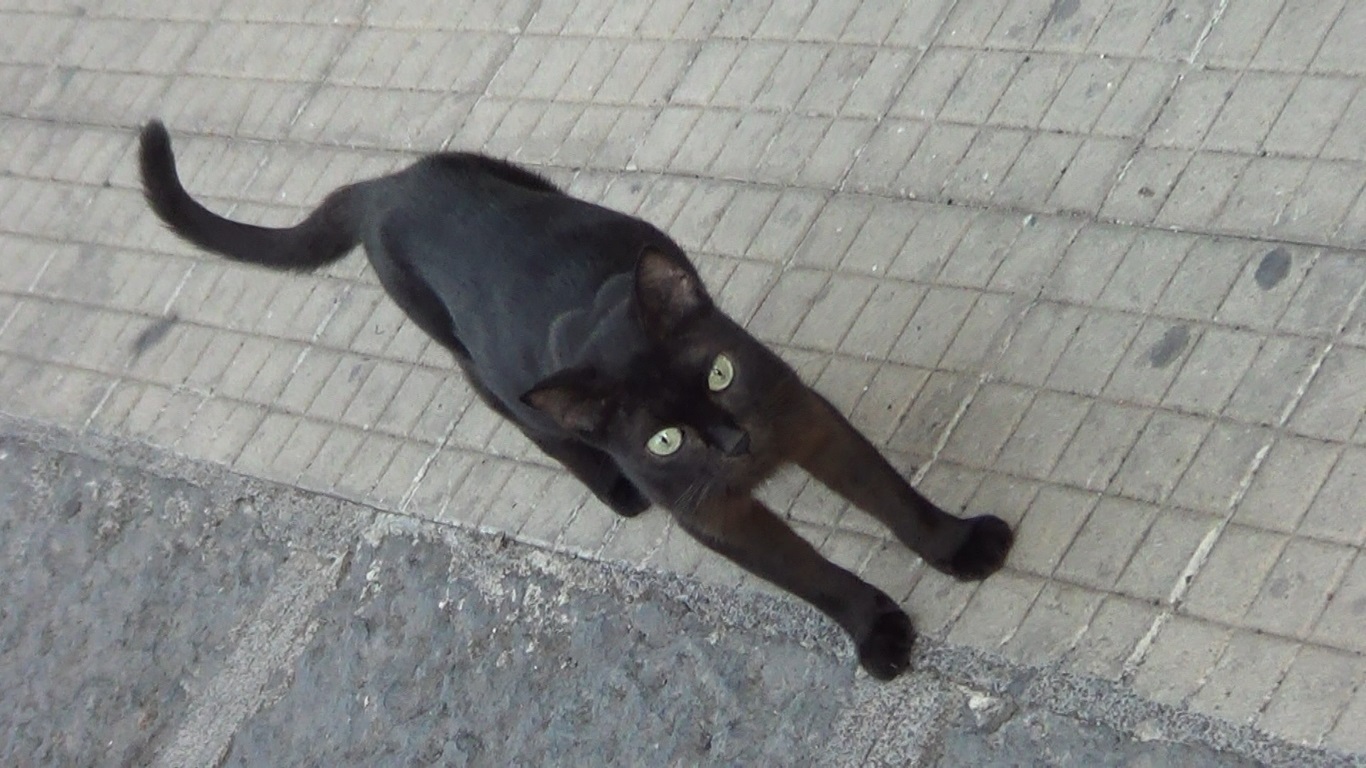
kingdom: Animalia
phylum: Chordata
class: Mammalia
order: Carnivora
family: Felidae
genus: Felis
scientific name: Felis catus
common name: Domestic cat
